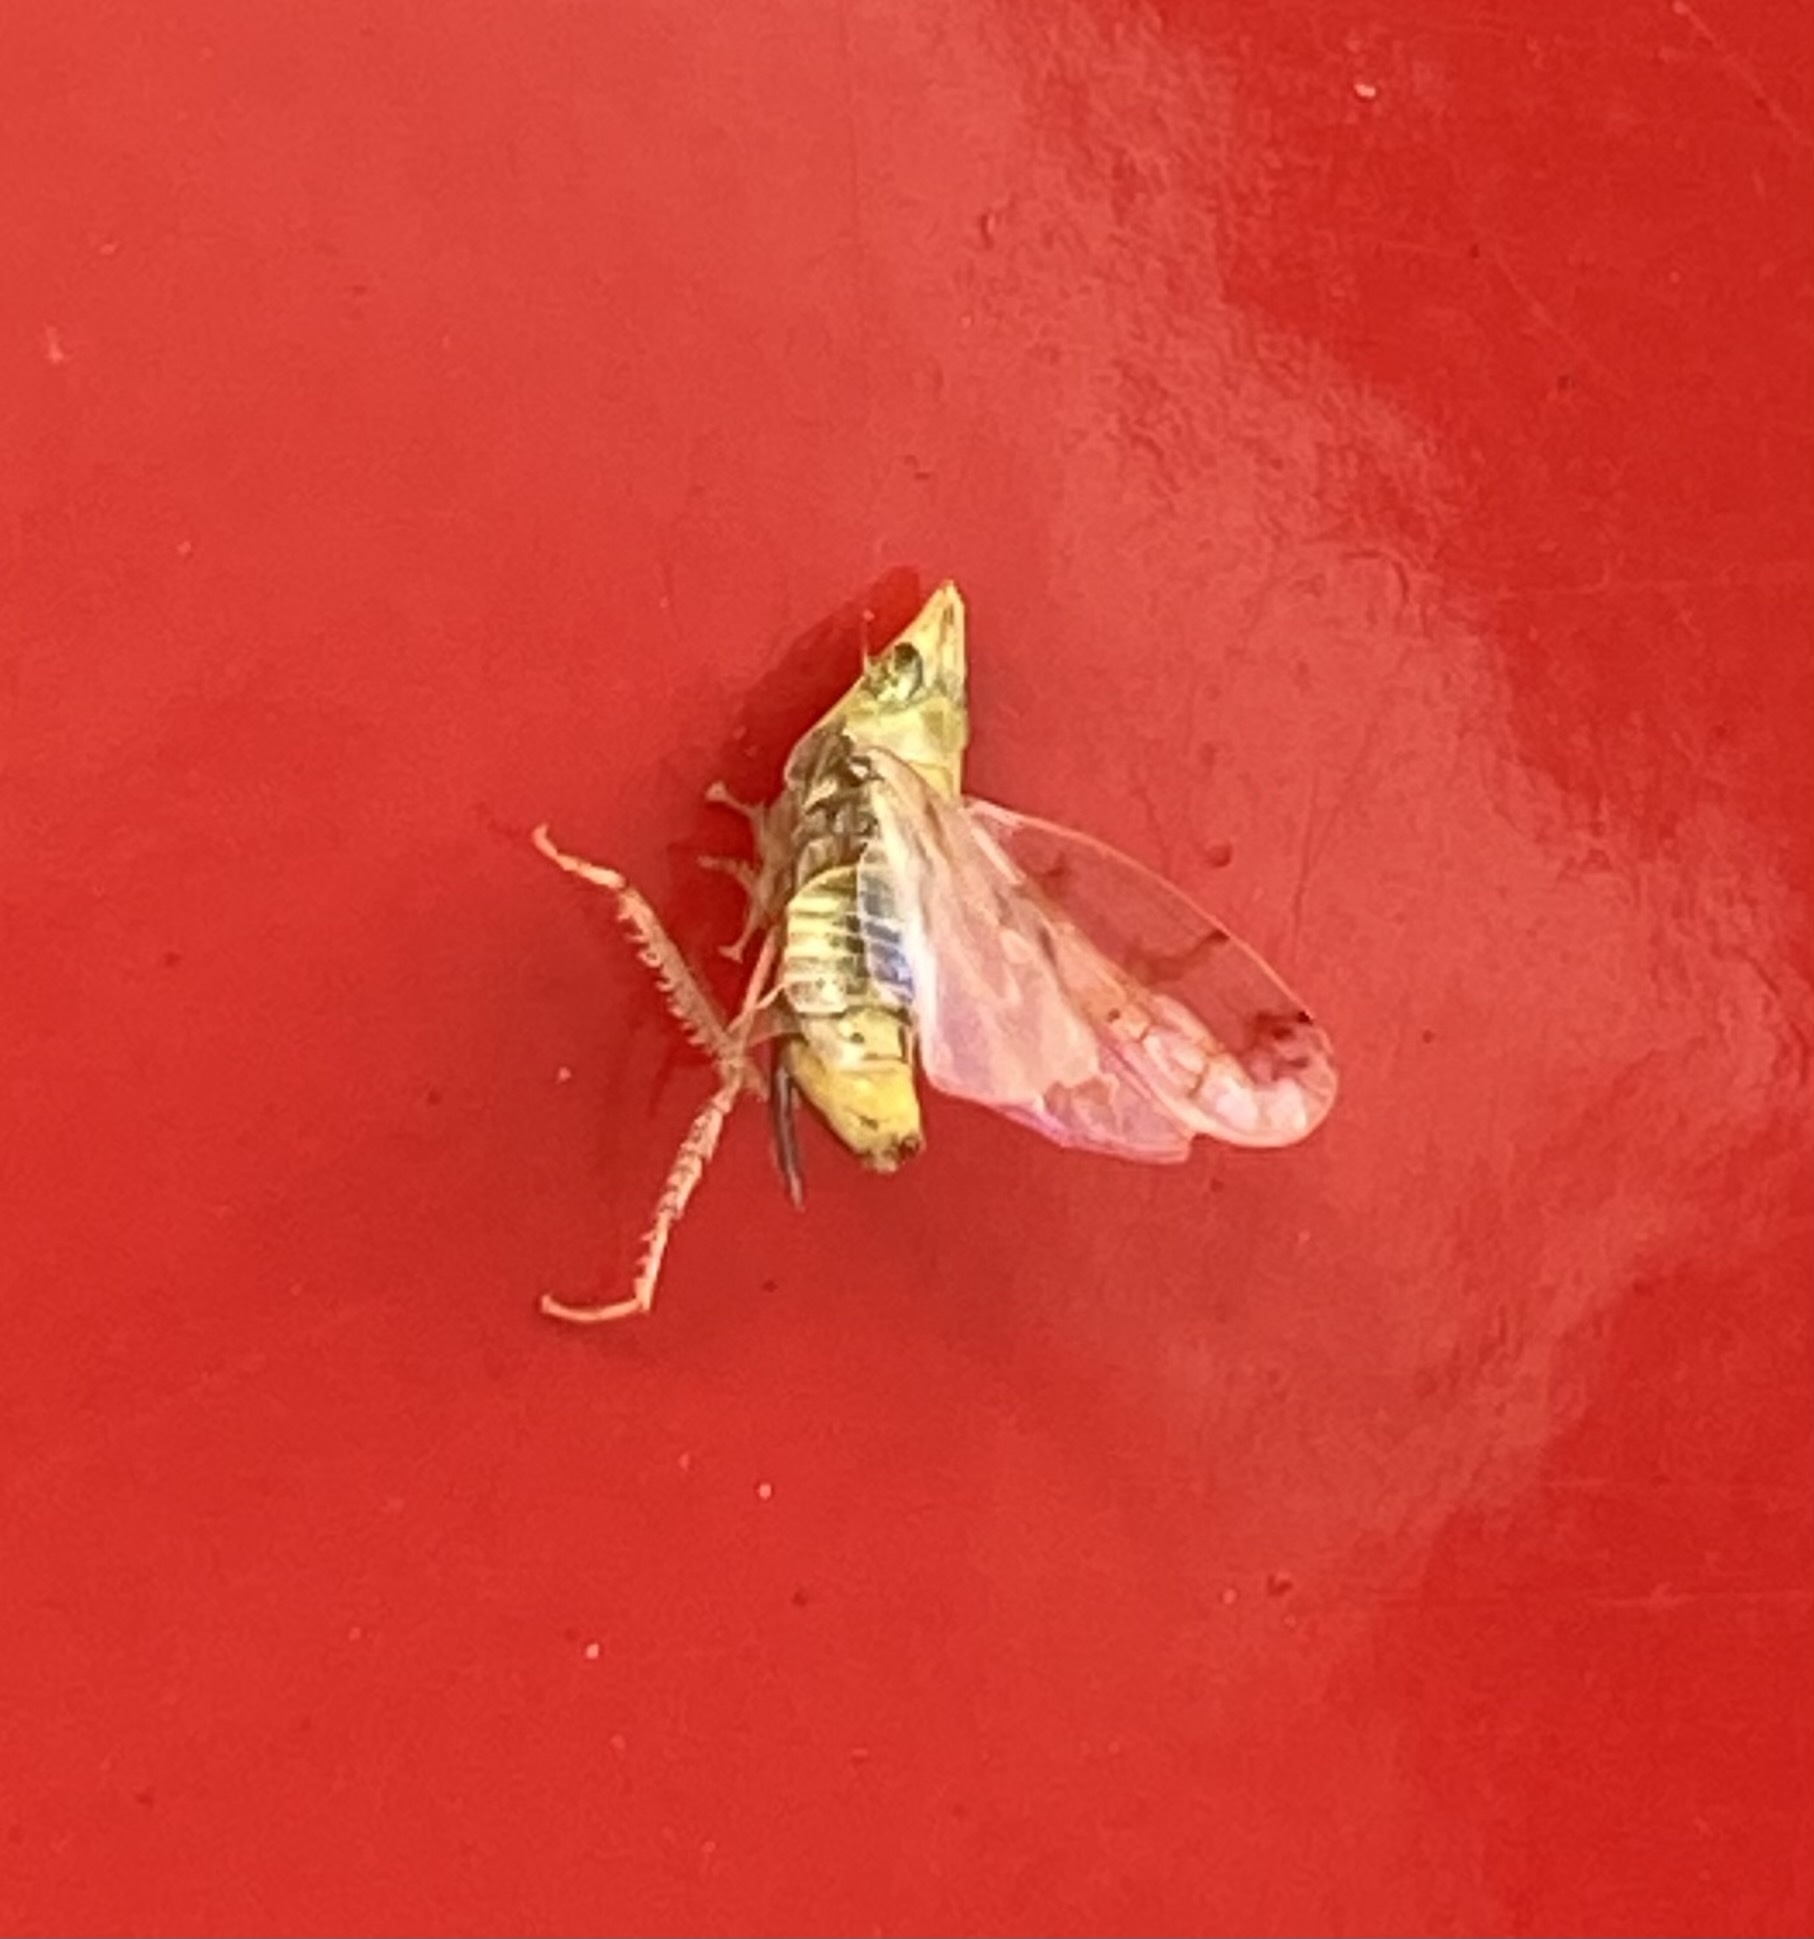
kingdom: Animalia
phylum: Arthropoda
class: Insecta
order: Hemiptera
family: Cicadellidae
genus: Japananus
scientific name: Japananus hyalinus
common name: The japanese maple leafhopper
